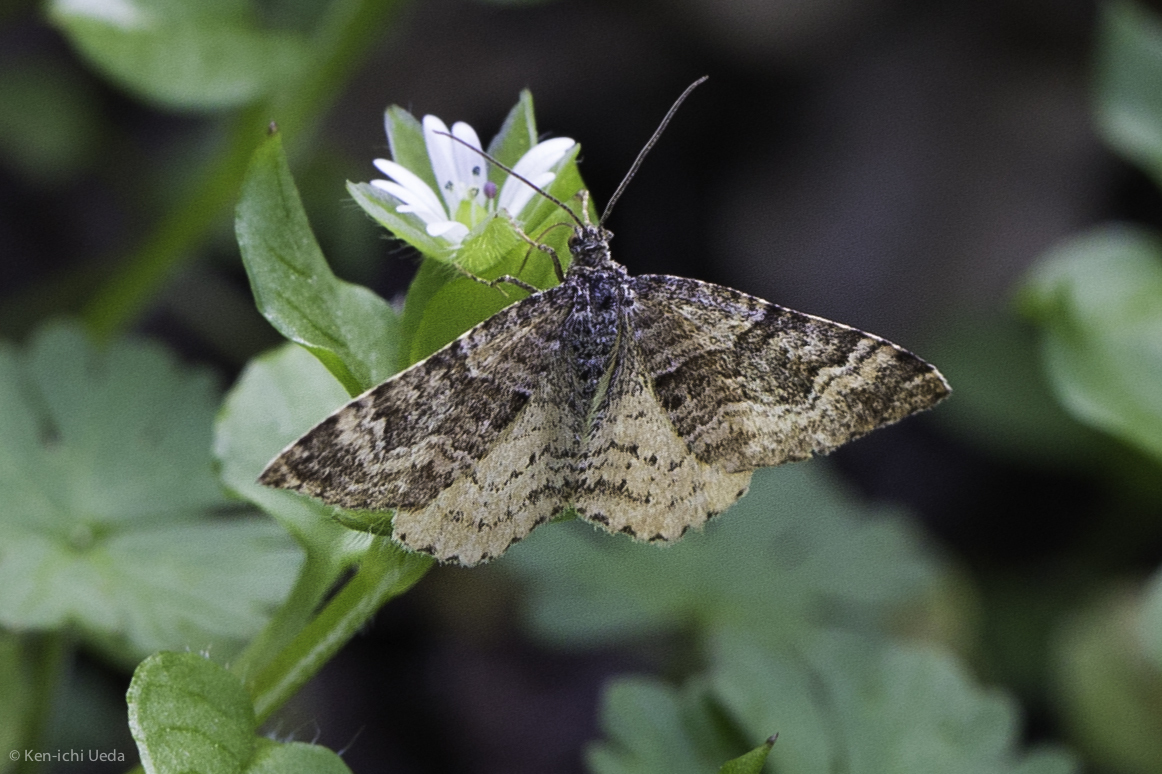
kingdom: Animalia
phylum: Arthropoda
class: Insecta
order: Lepidoptera
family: Geometridae
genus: Epirrhoe
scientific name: Epirrhoe plebeculata
